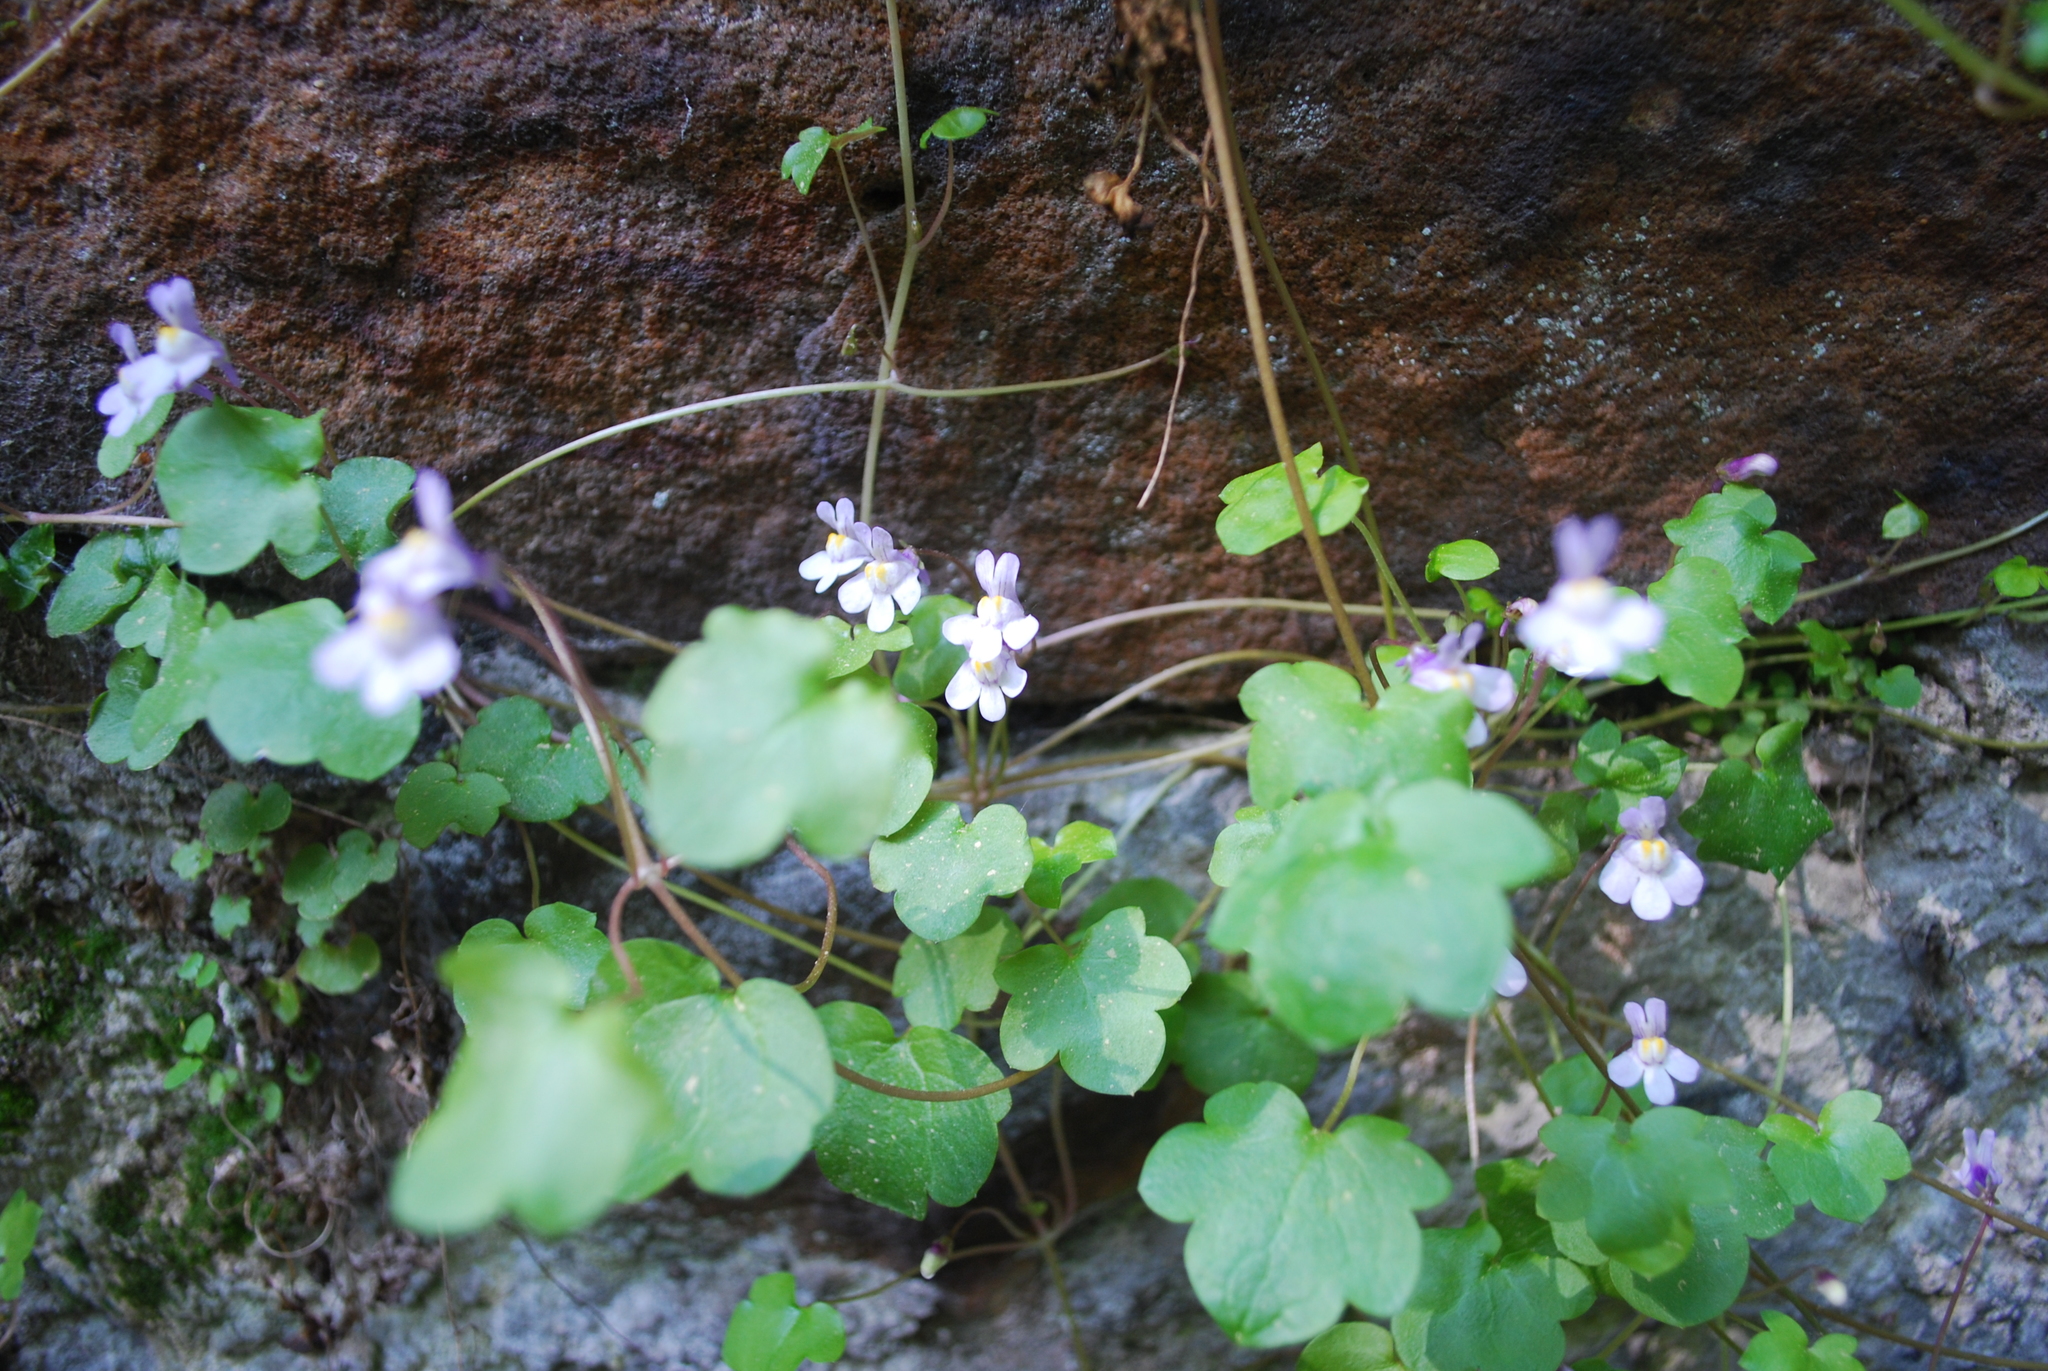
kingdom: Plantae
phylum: Tracheophyta
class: Magnoliopsida
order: Lamiales
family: Plantaginaceae
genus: Cymbalaria
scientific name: Cymbalaria muralis
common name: Ivy-leaved toadflax
